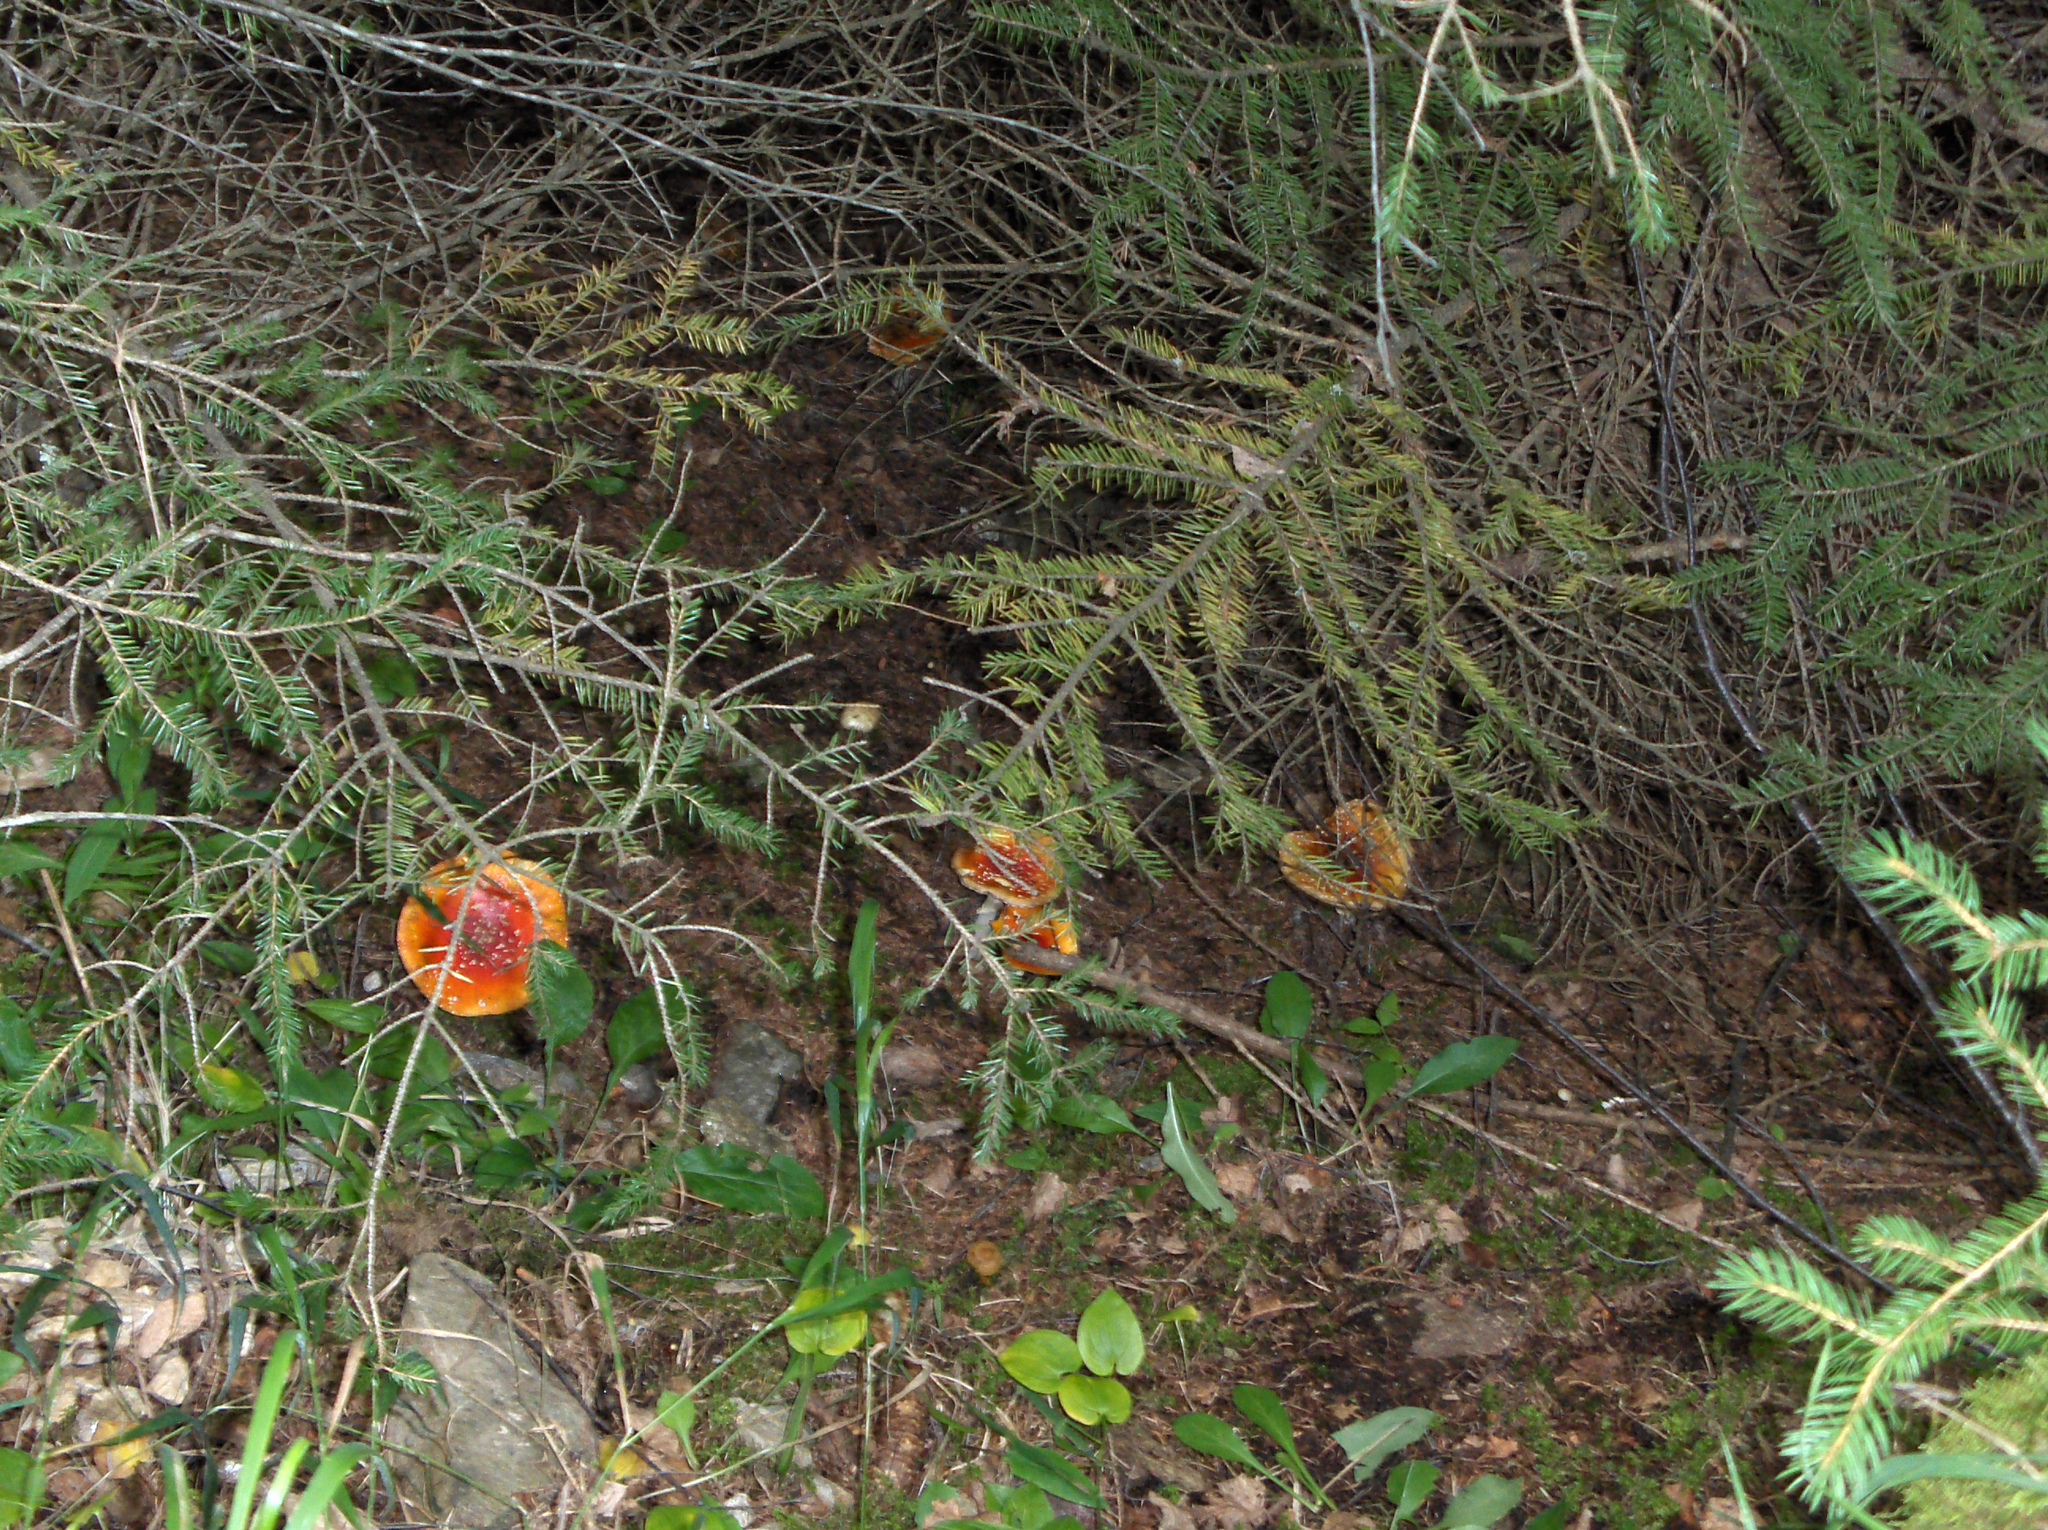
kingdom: Fungi
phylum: Basidiomycota
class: Agaricomycetes
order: Agaricales
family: Amanitaceae
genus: Amanita
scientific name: Amanita muscaria
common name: Fly agaric
